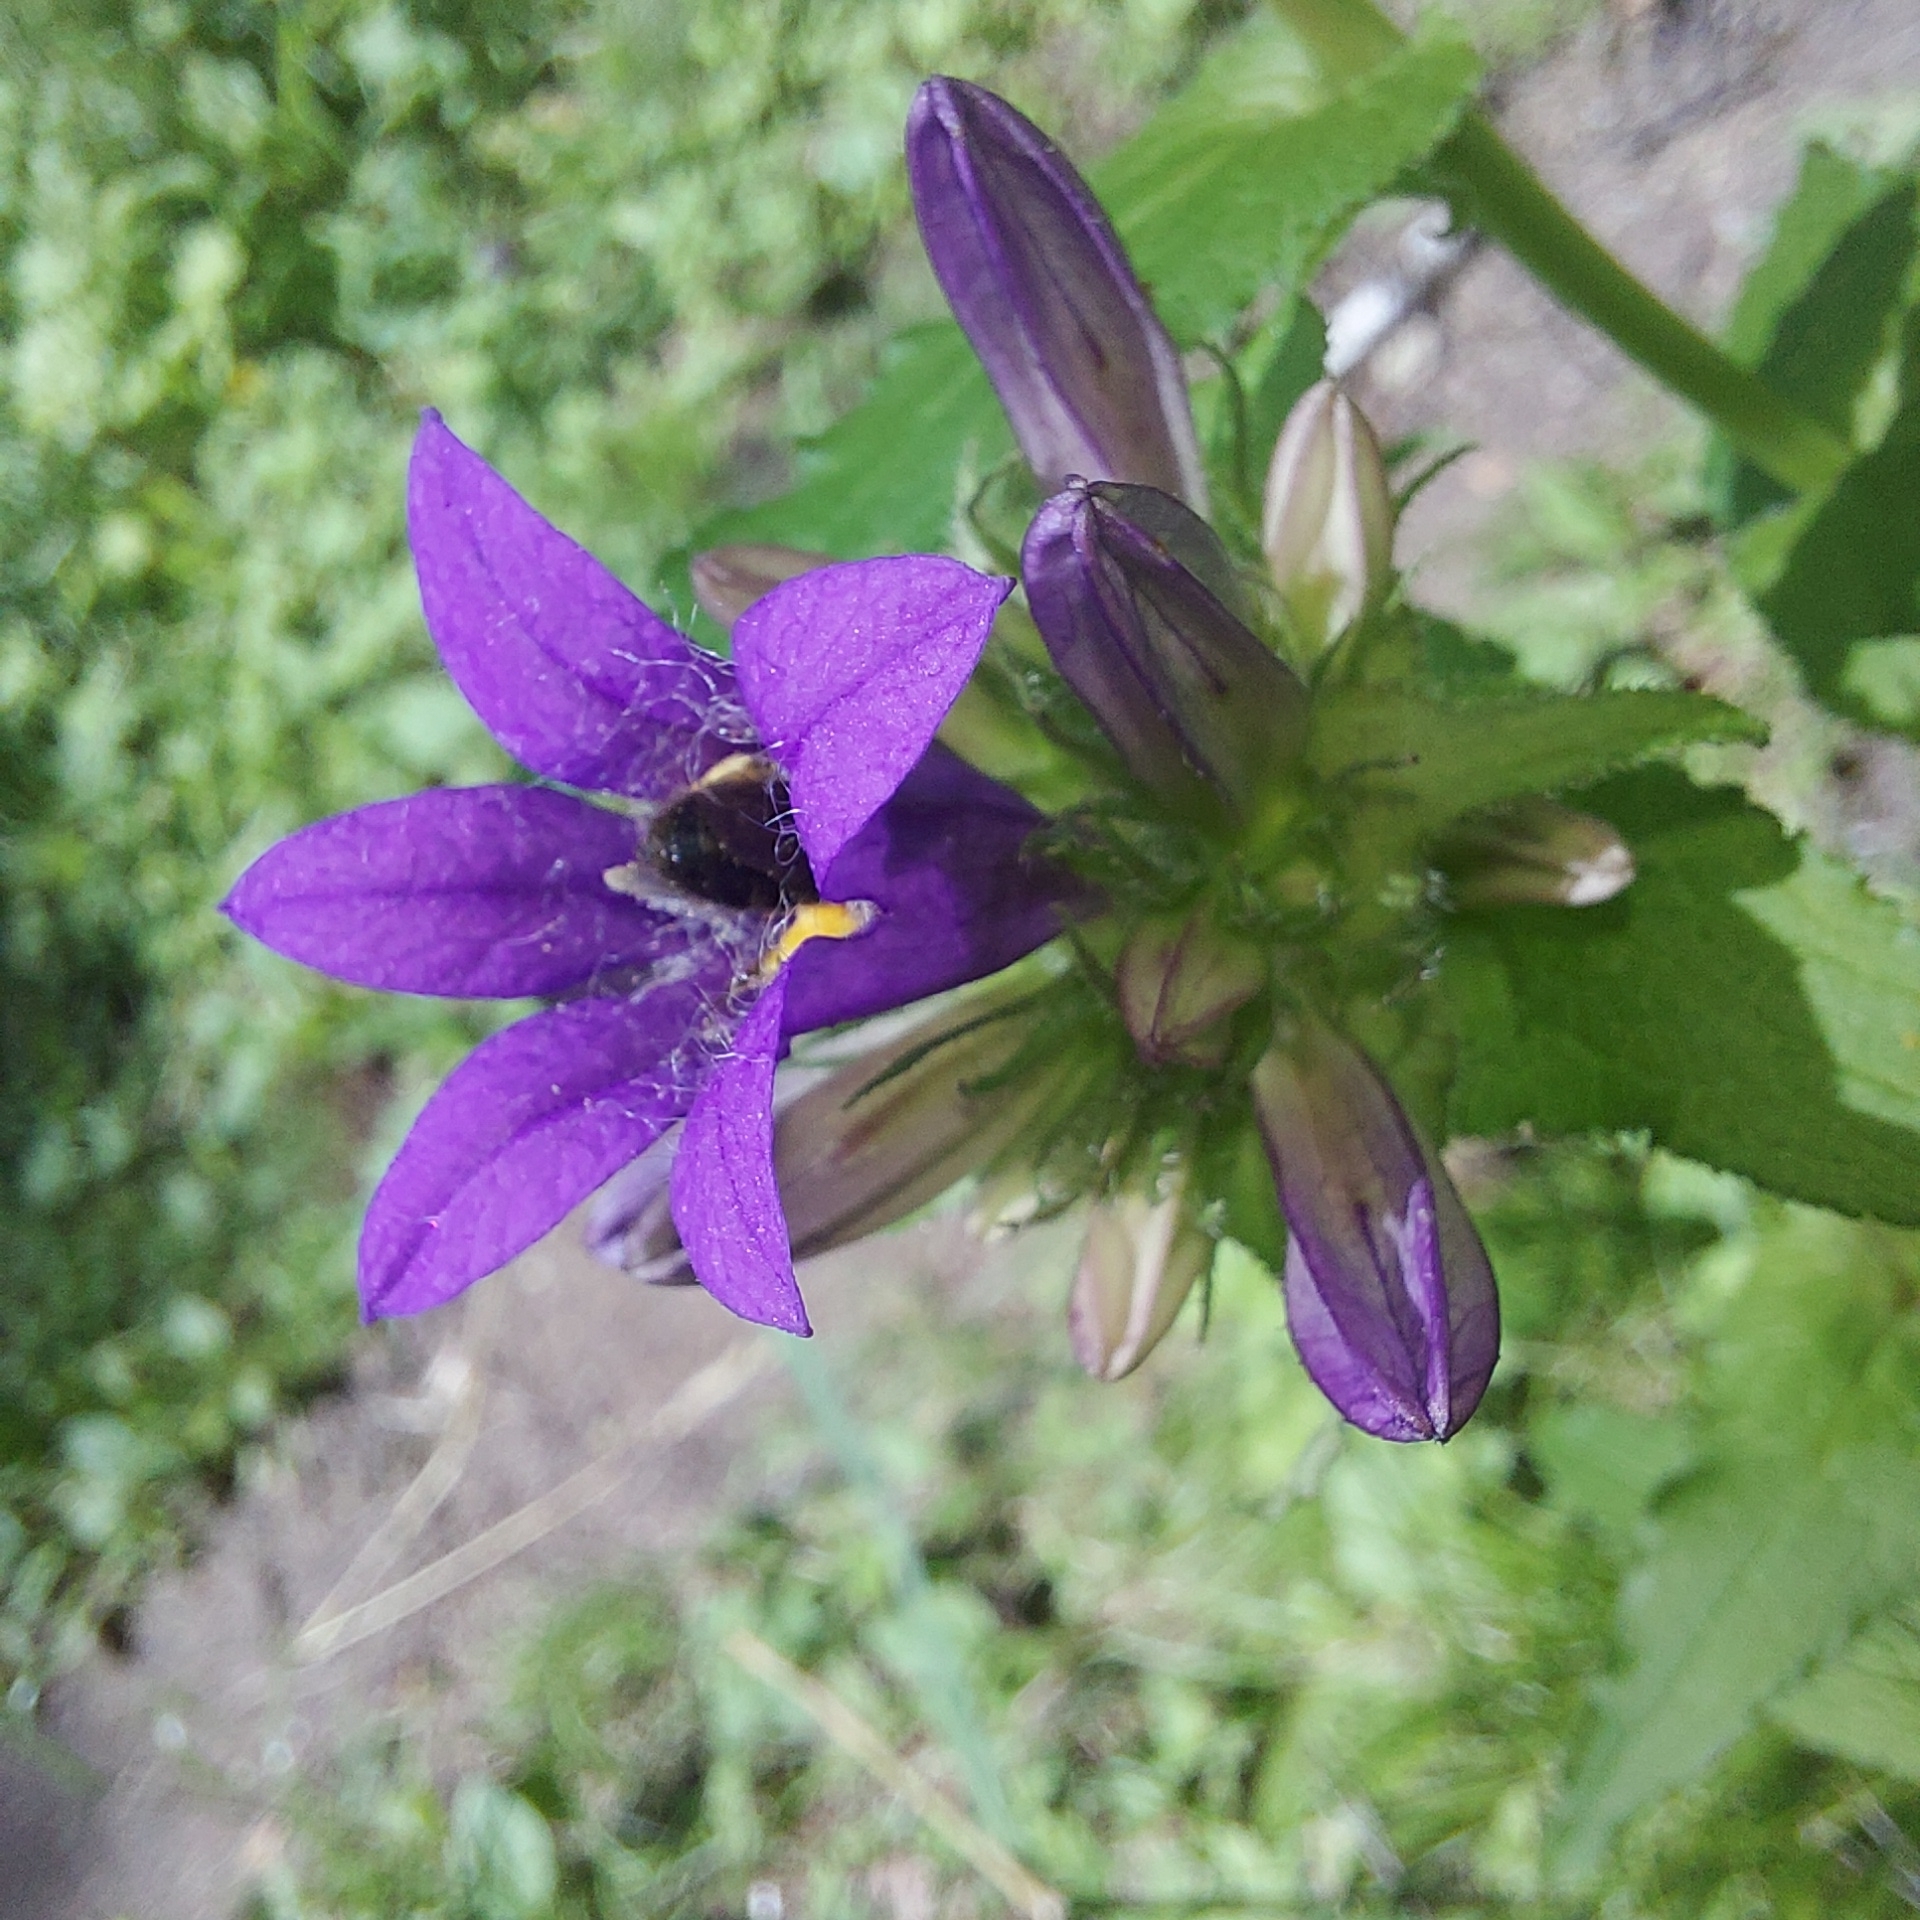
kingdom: Plantae
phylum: Tracheophyta
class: Magnoliopsida
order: Asterales
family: Campanulaceae
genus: Campanula
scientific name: Campanula trachelium
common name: Nettle-leaved bellflower
